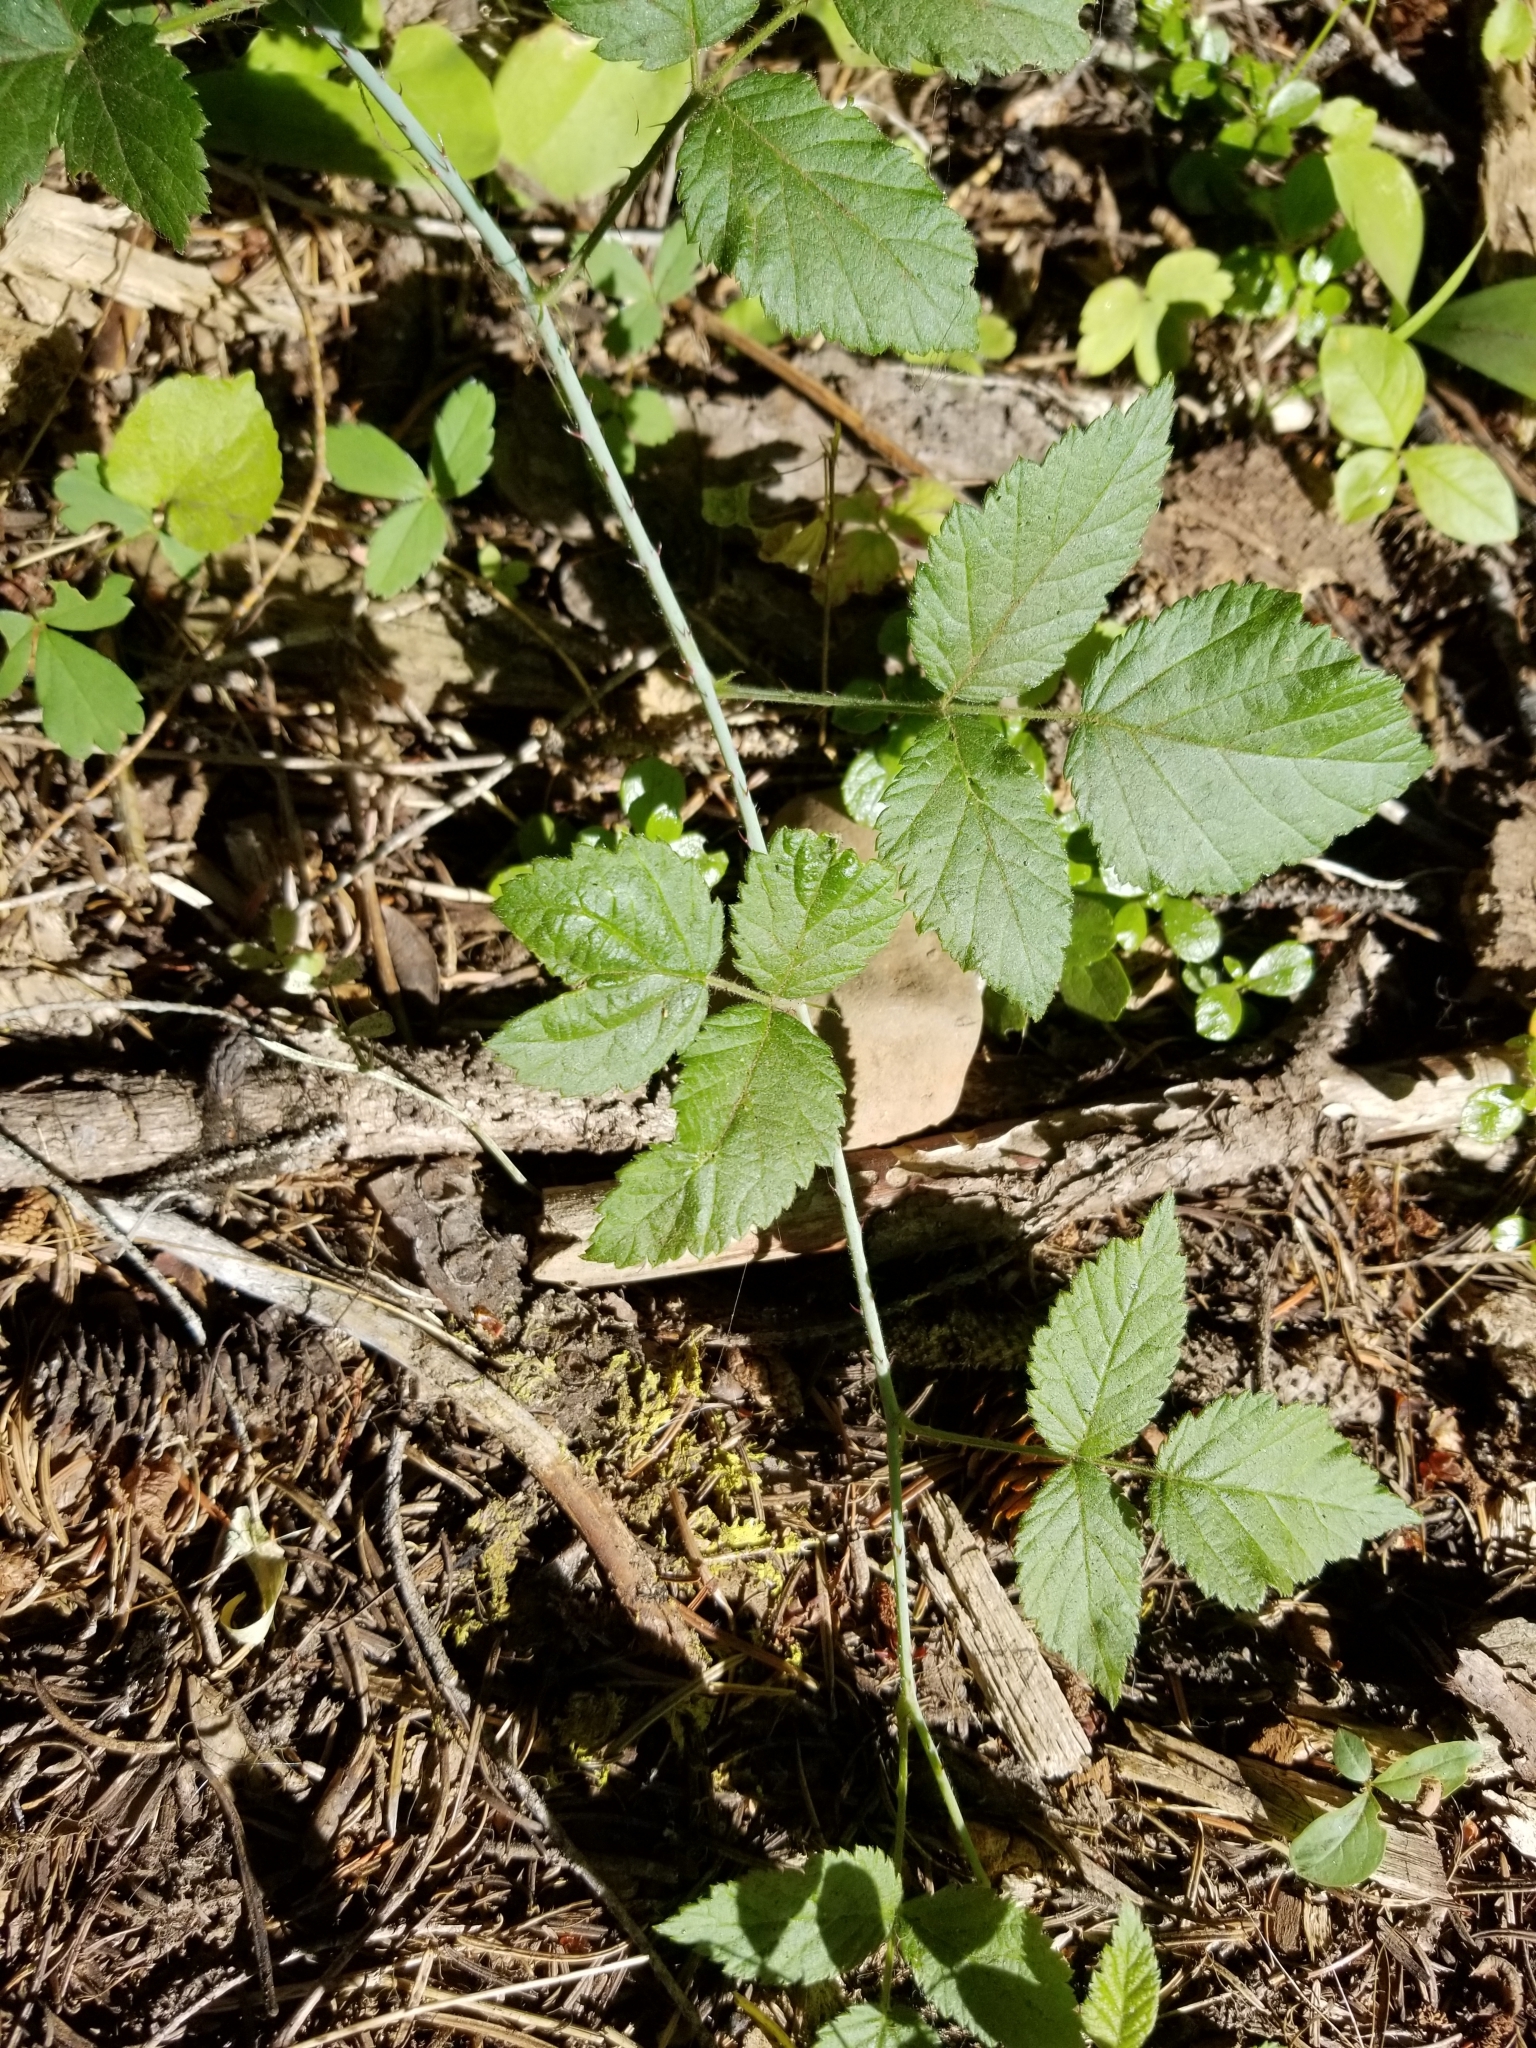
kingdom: Plantae
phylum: Tracheophyta
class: Magnoliopsida
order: Rosales
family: Rosaceae
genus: Rubus
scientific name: Rubus ursinus
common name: Pacific blackberry
